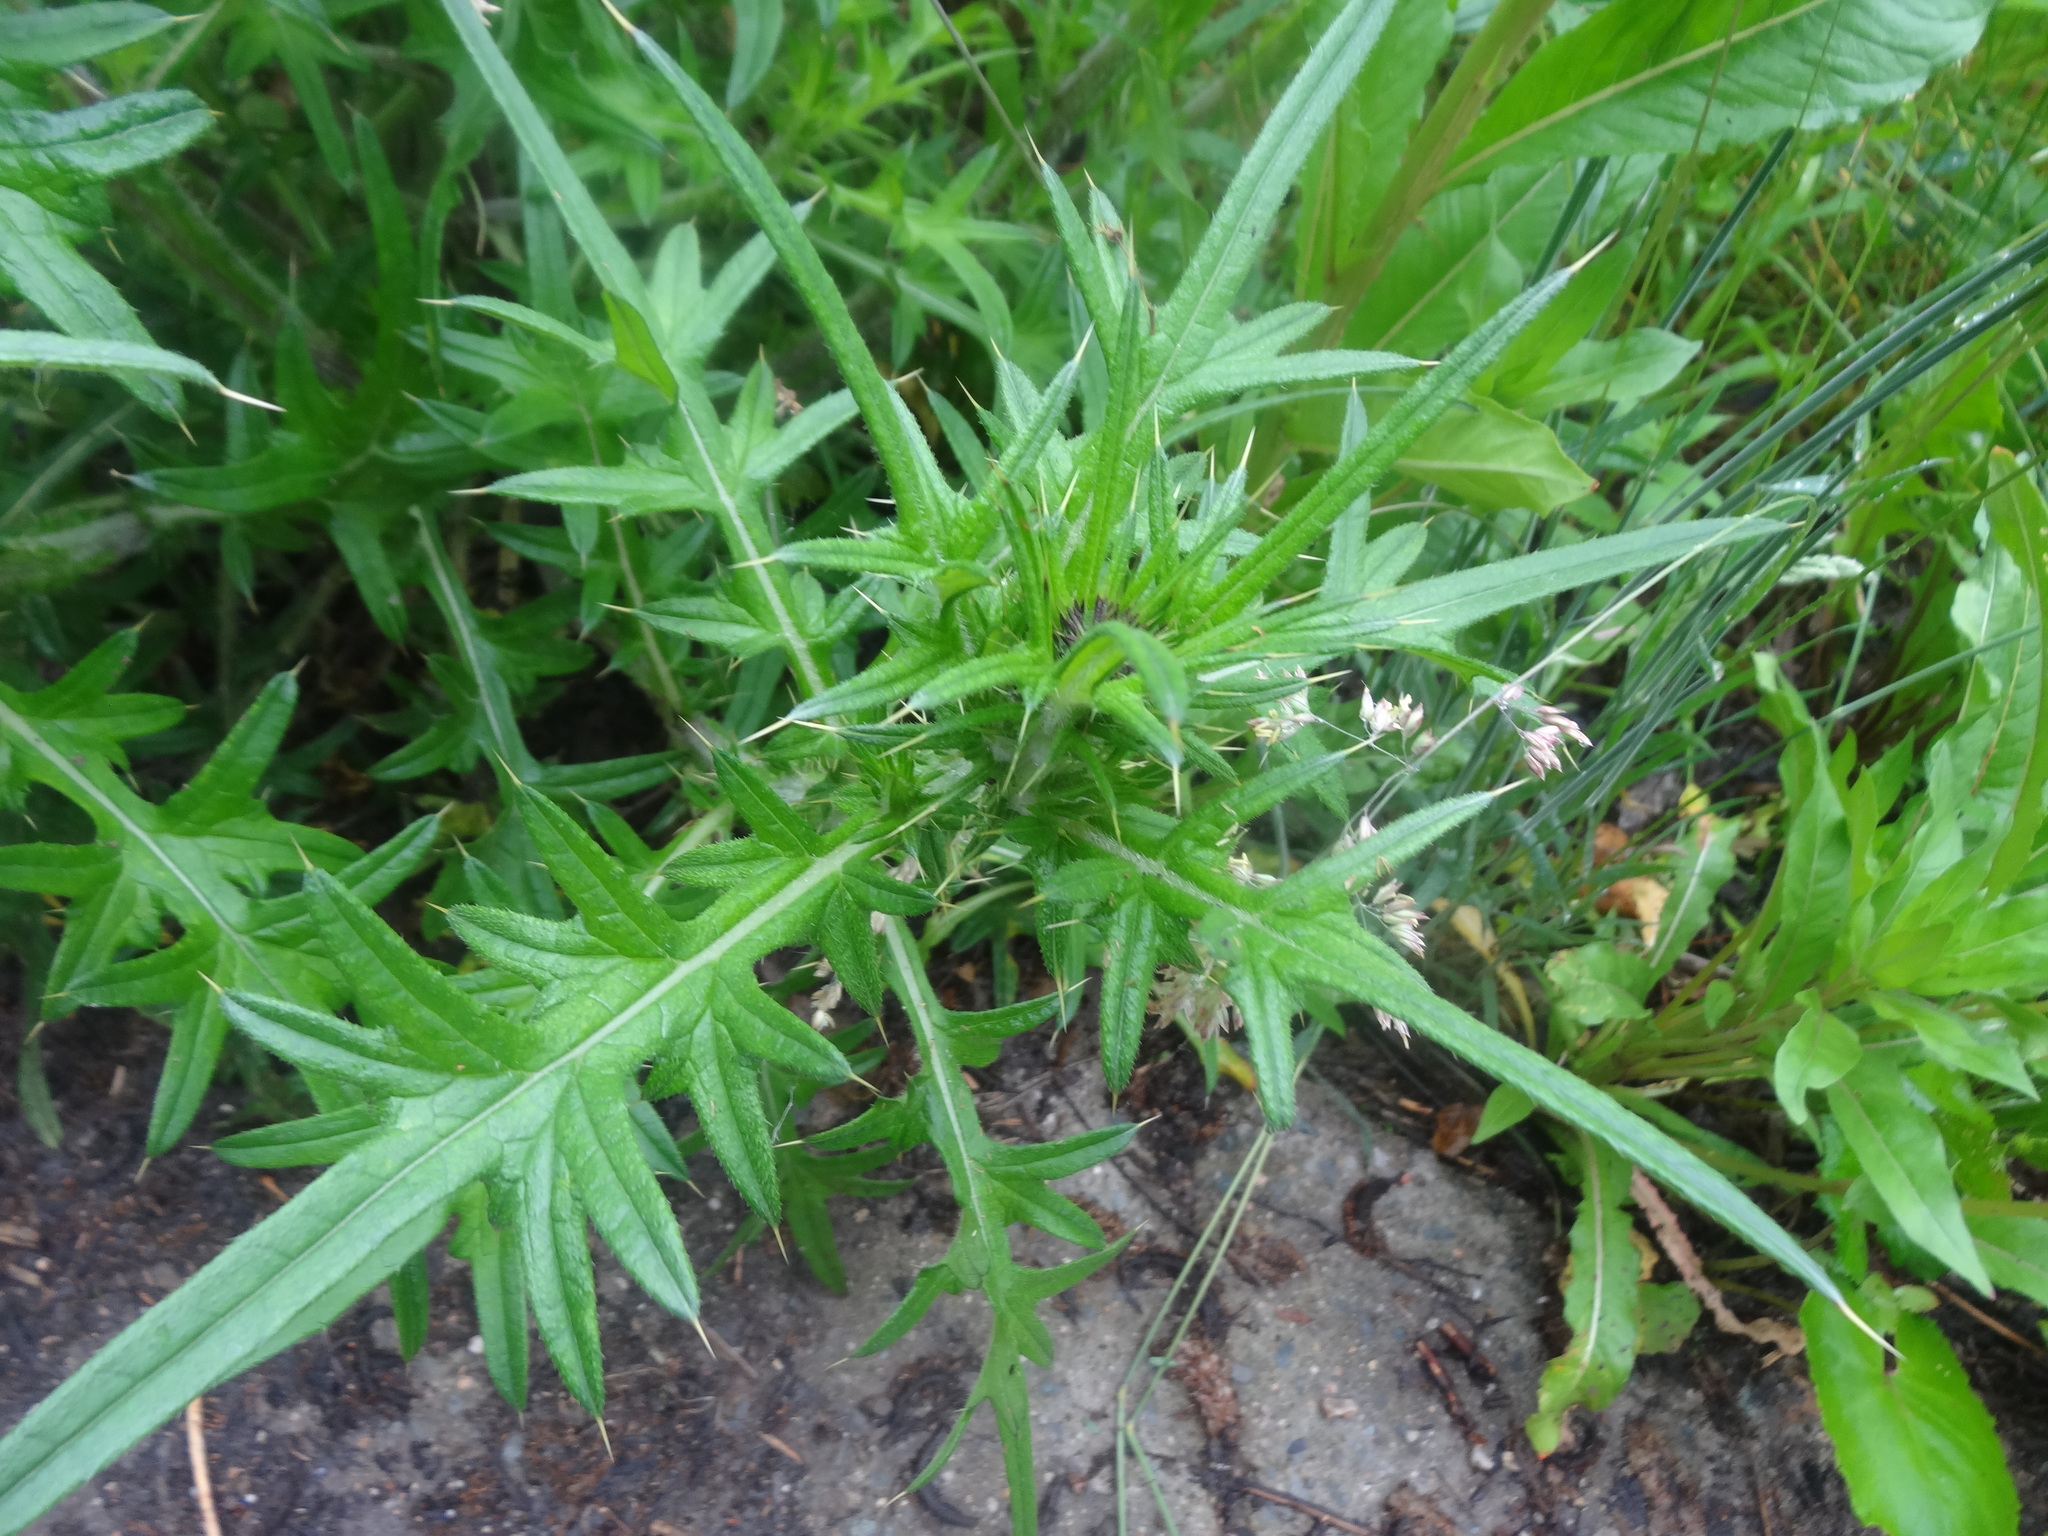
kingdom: Plantae
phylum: Tracheophyta
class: Magnoliopsida
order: Asterales
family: Asteraceae
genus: Cirsium
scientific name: Cirsium vulgare
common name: Bull thistle
